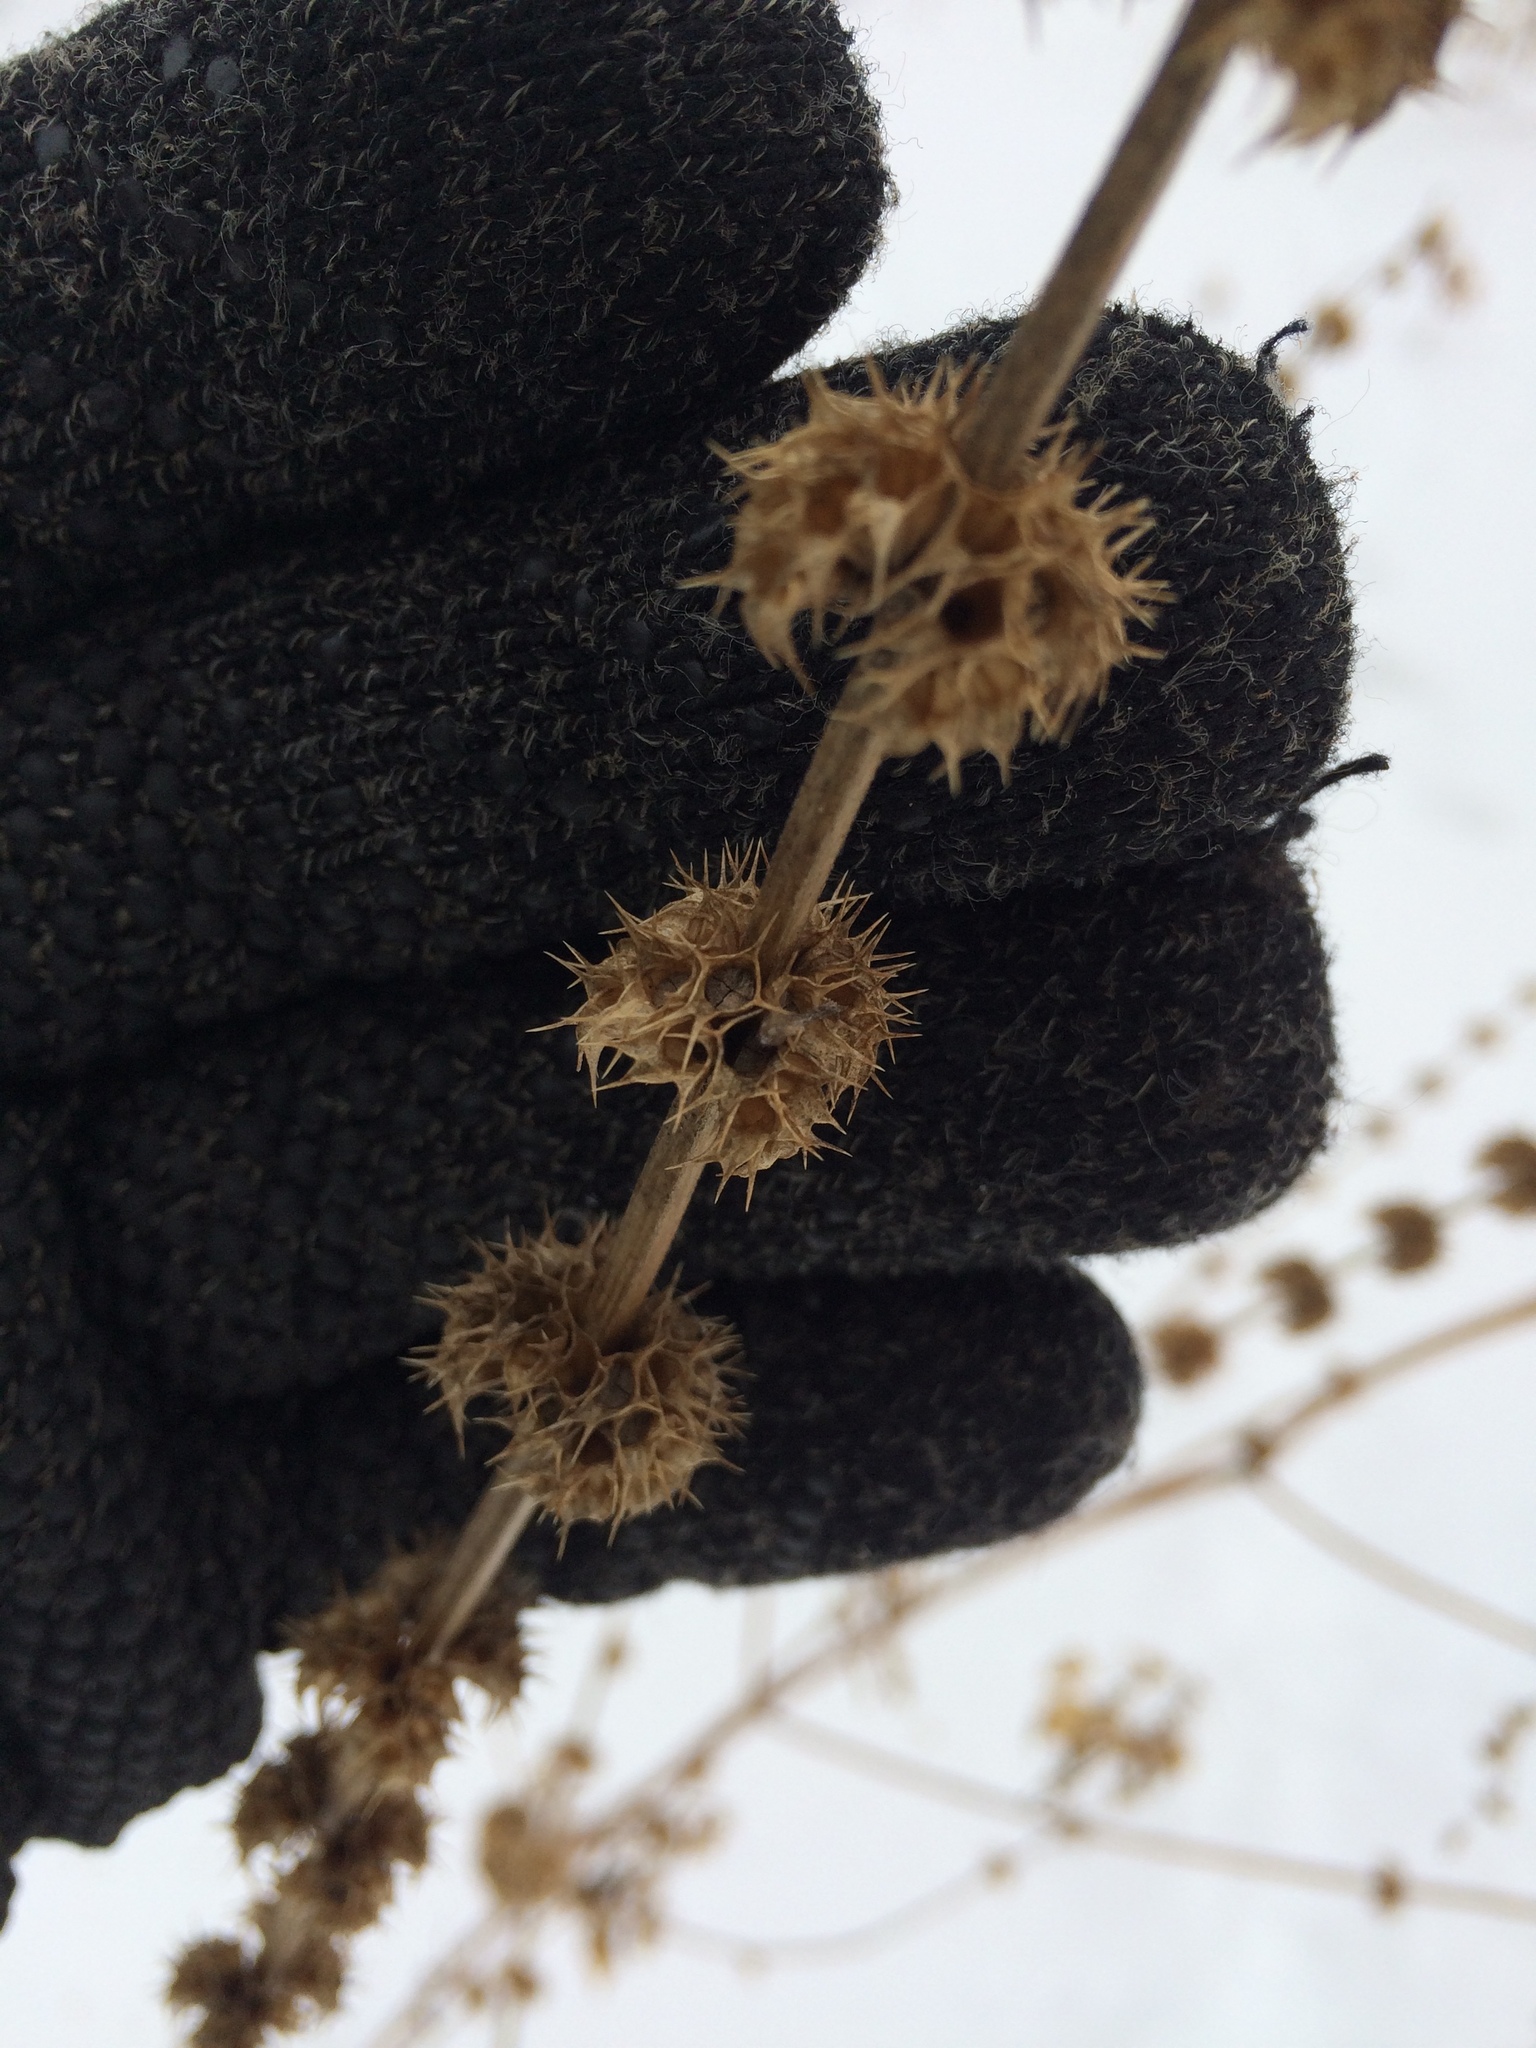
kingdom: Plantae
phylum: Tracheophyta
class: Magnoliopsida
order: Lamiales
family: Lamiaceae
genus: Leonurus
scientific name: Leonurus cardiaca
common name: Motherwort
